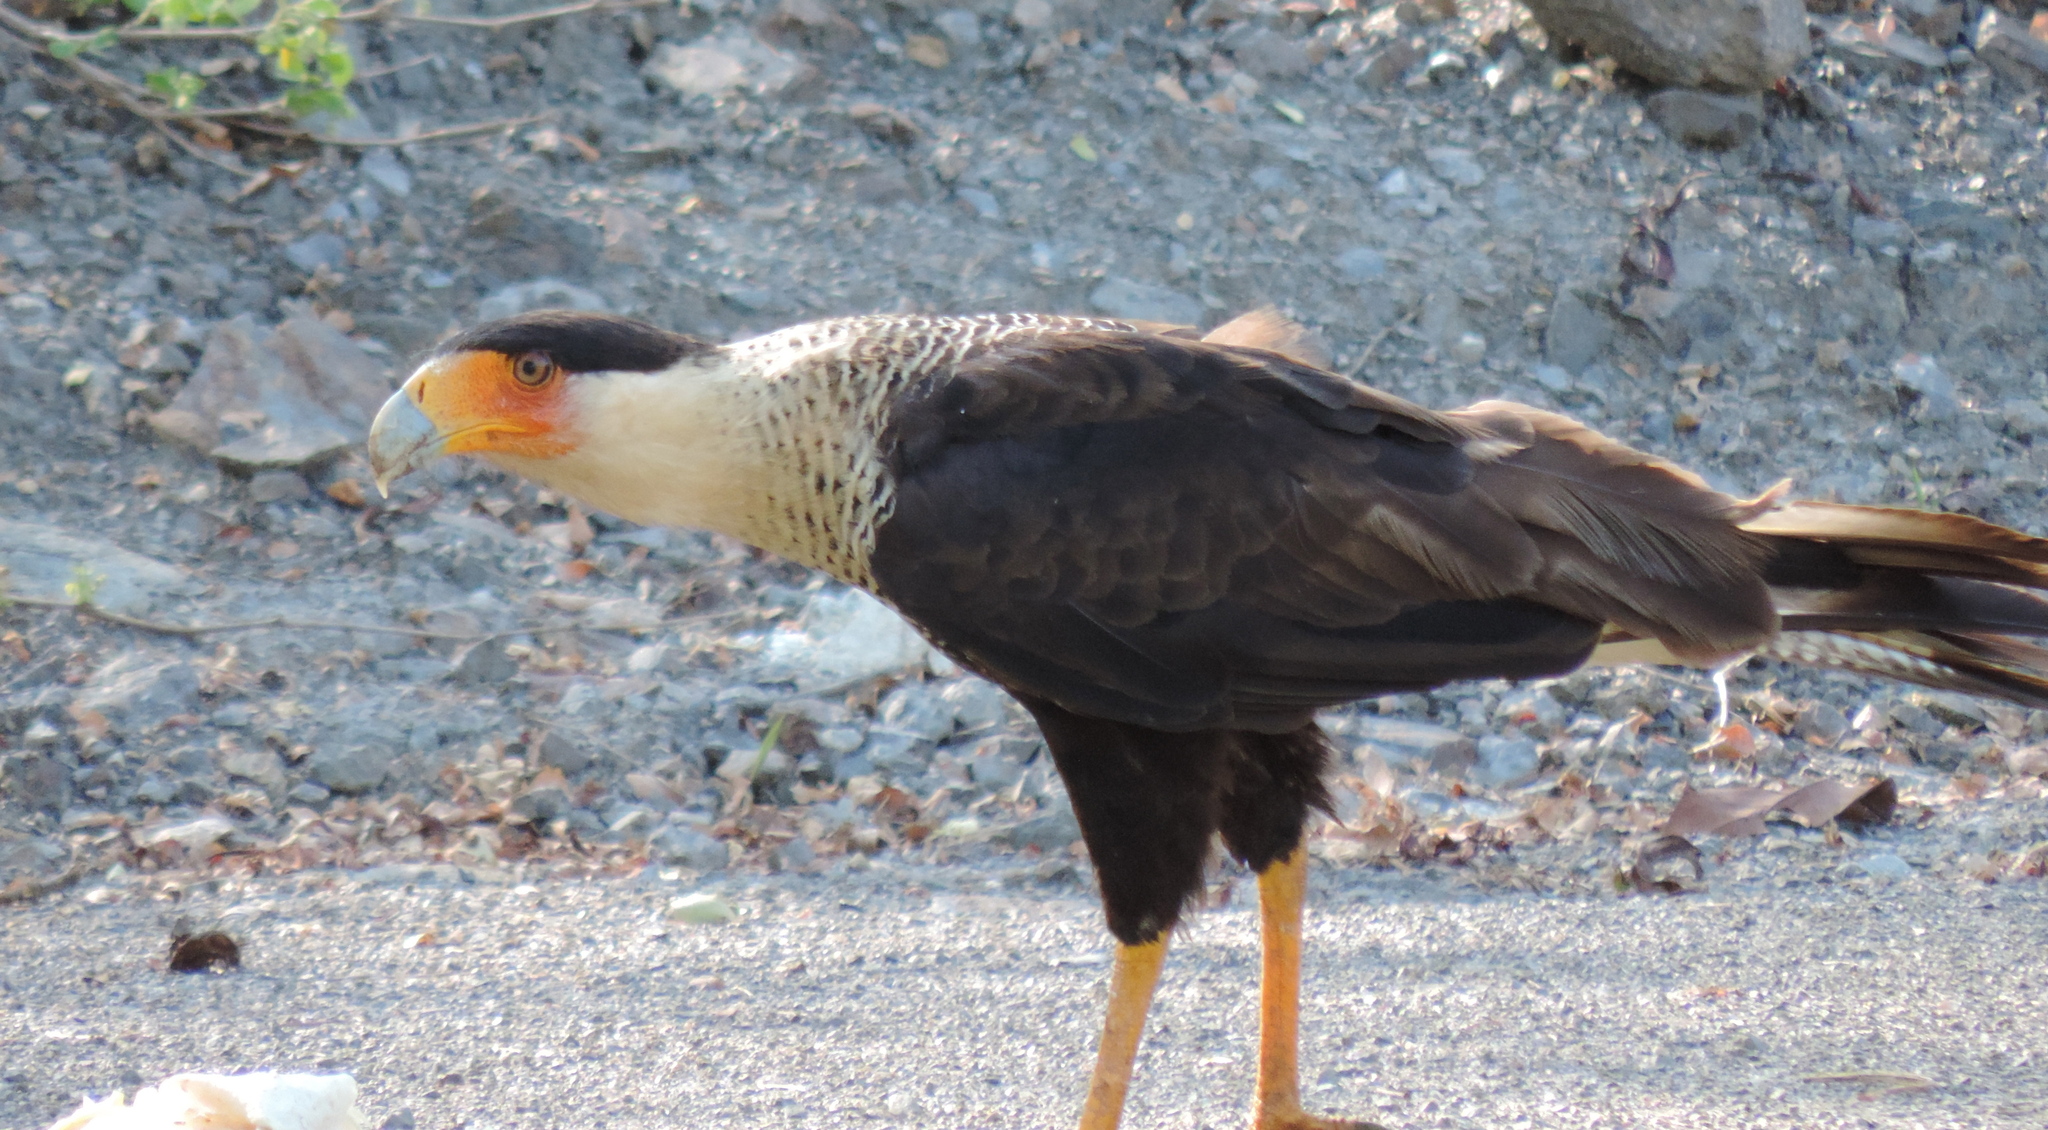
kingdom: Animalia
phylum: Chordata
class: Aves
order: Falconiformes
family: Falconidae
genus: Caracara
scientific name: Caracara plancus
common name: Southern caracara
